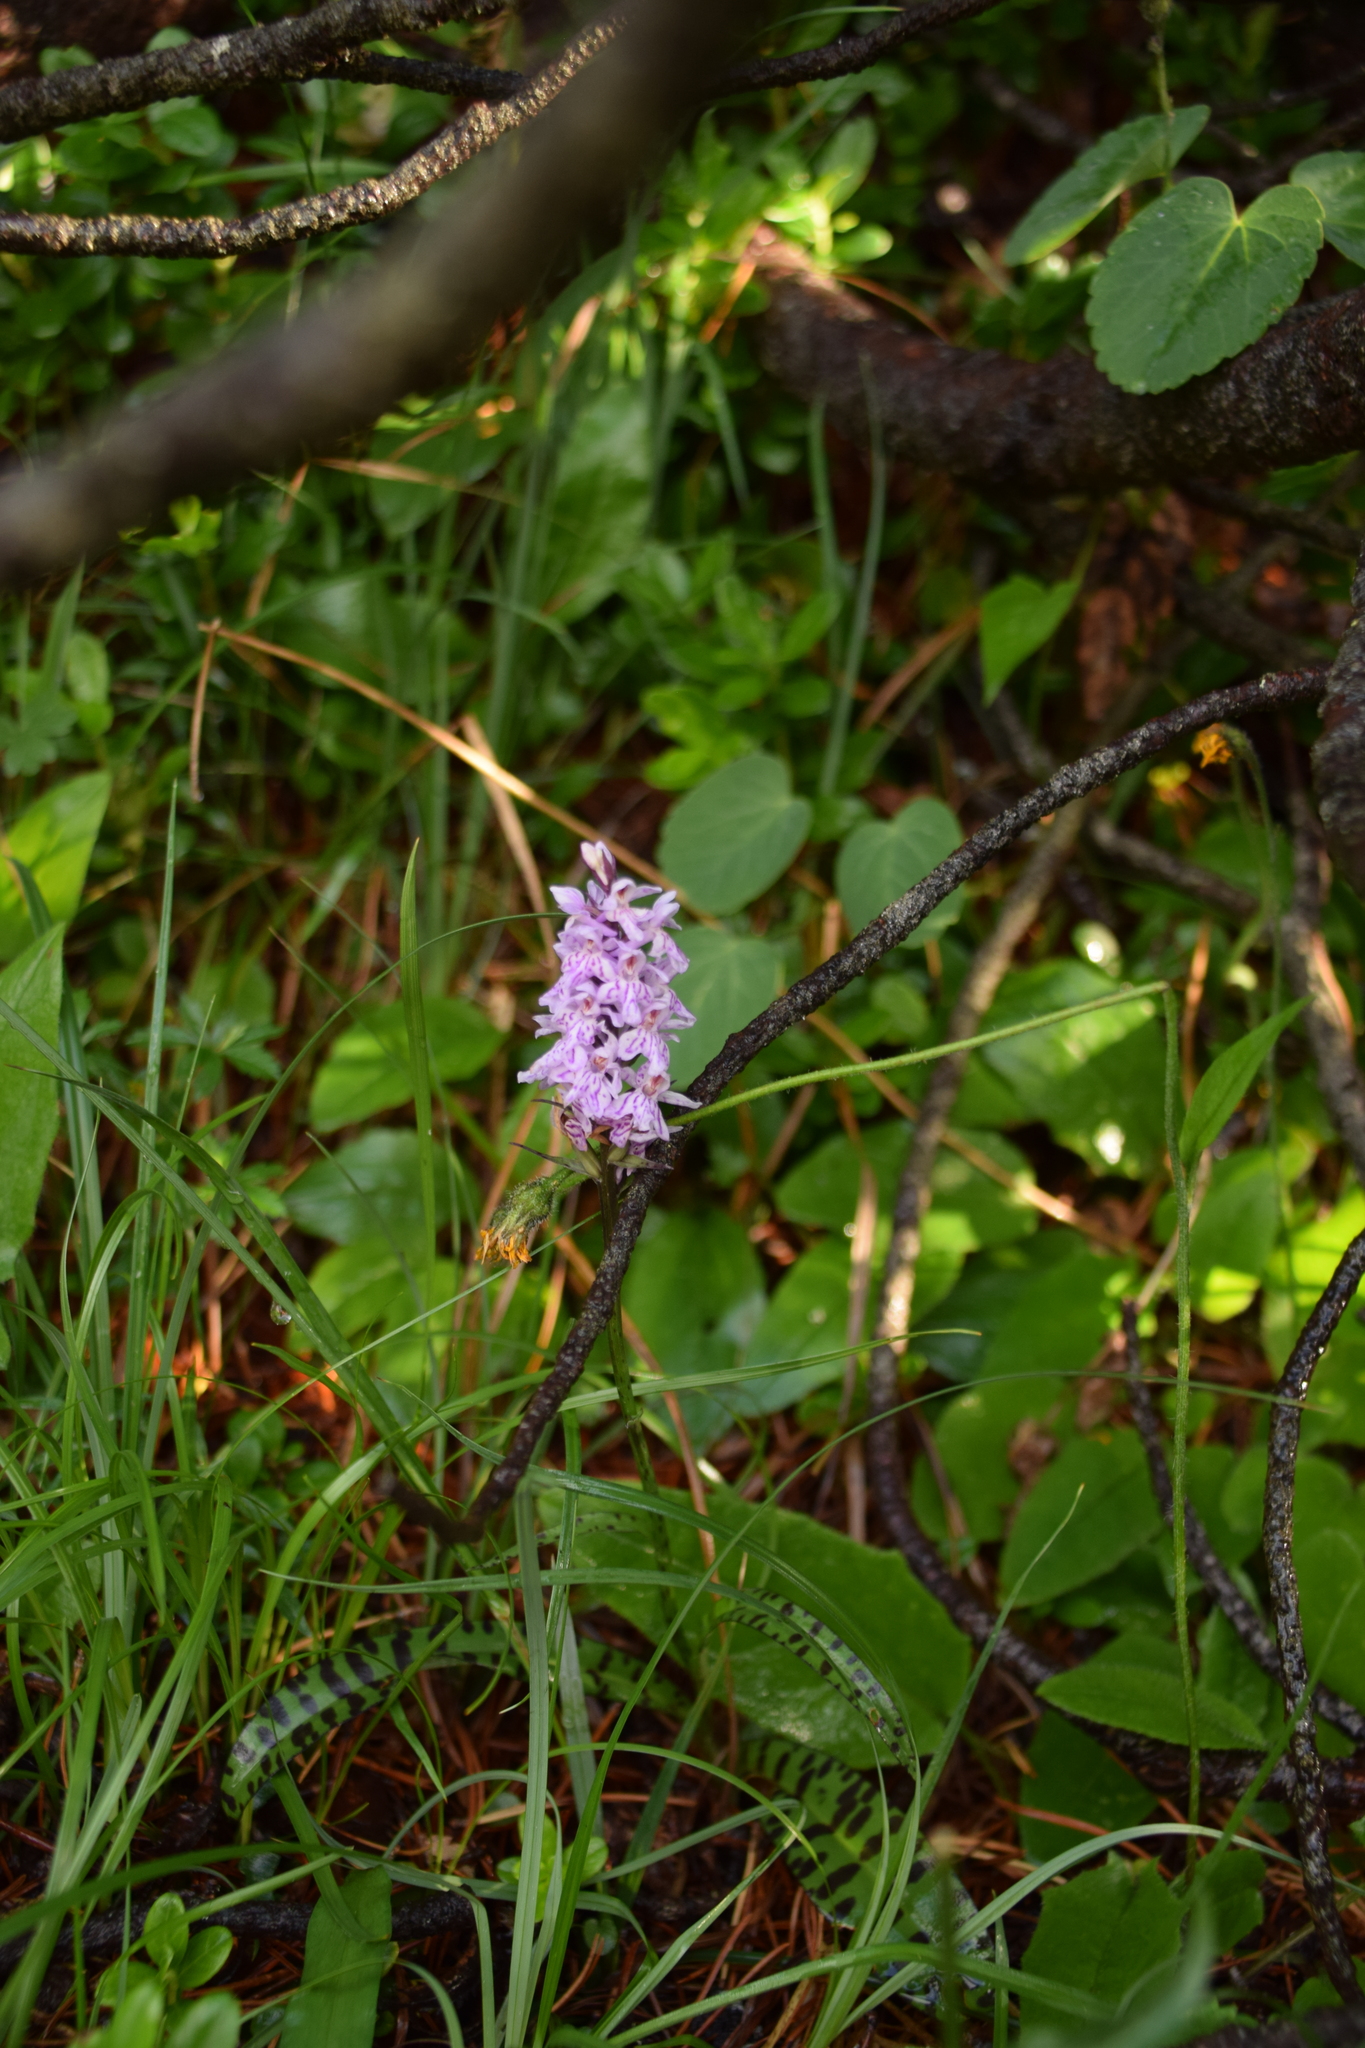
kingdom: Plantae
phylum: Tracheophyta
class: Liliopsida
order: Asparagales
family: Orchidaceae
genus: Dactylorhiza
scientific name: Dactylorhiza maculata
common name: Heath spotted-orchid
